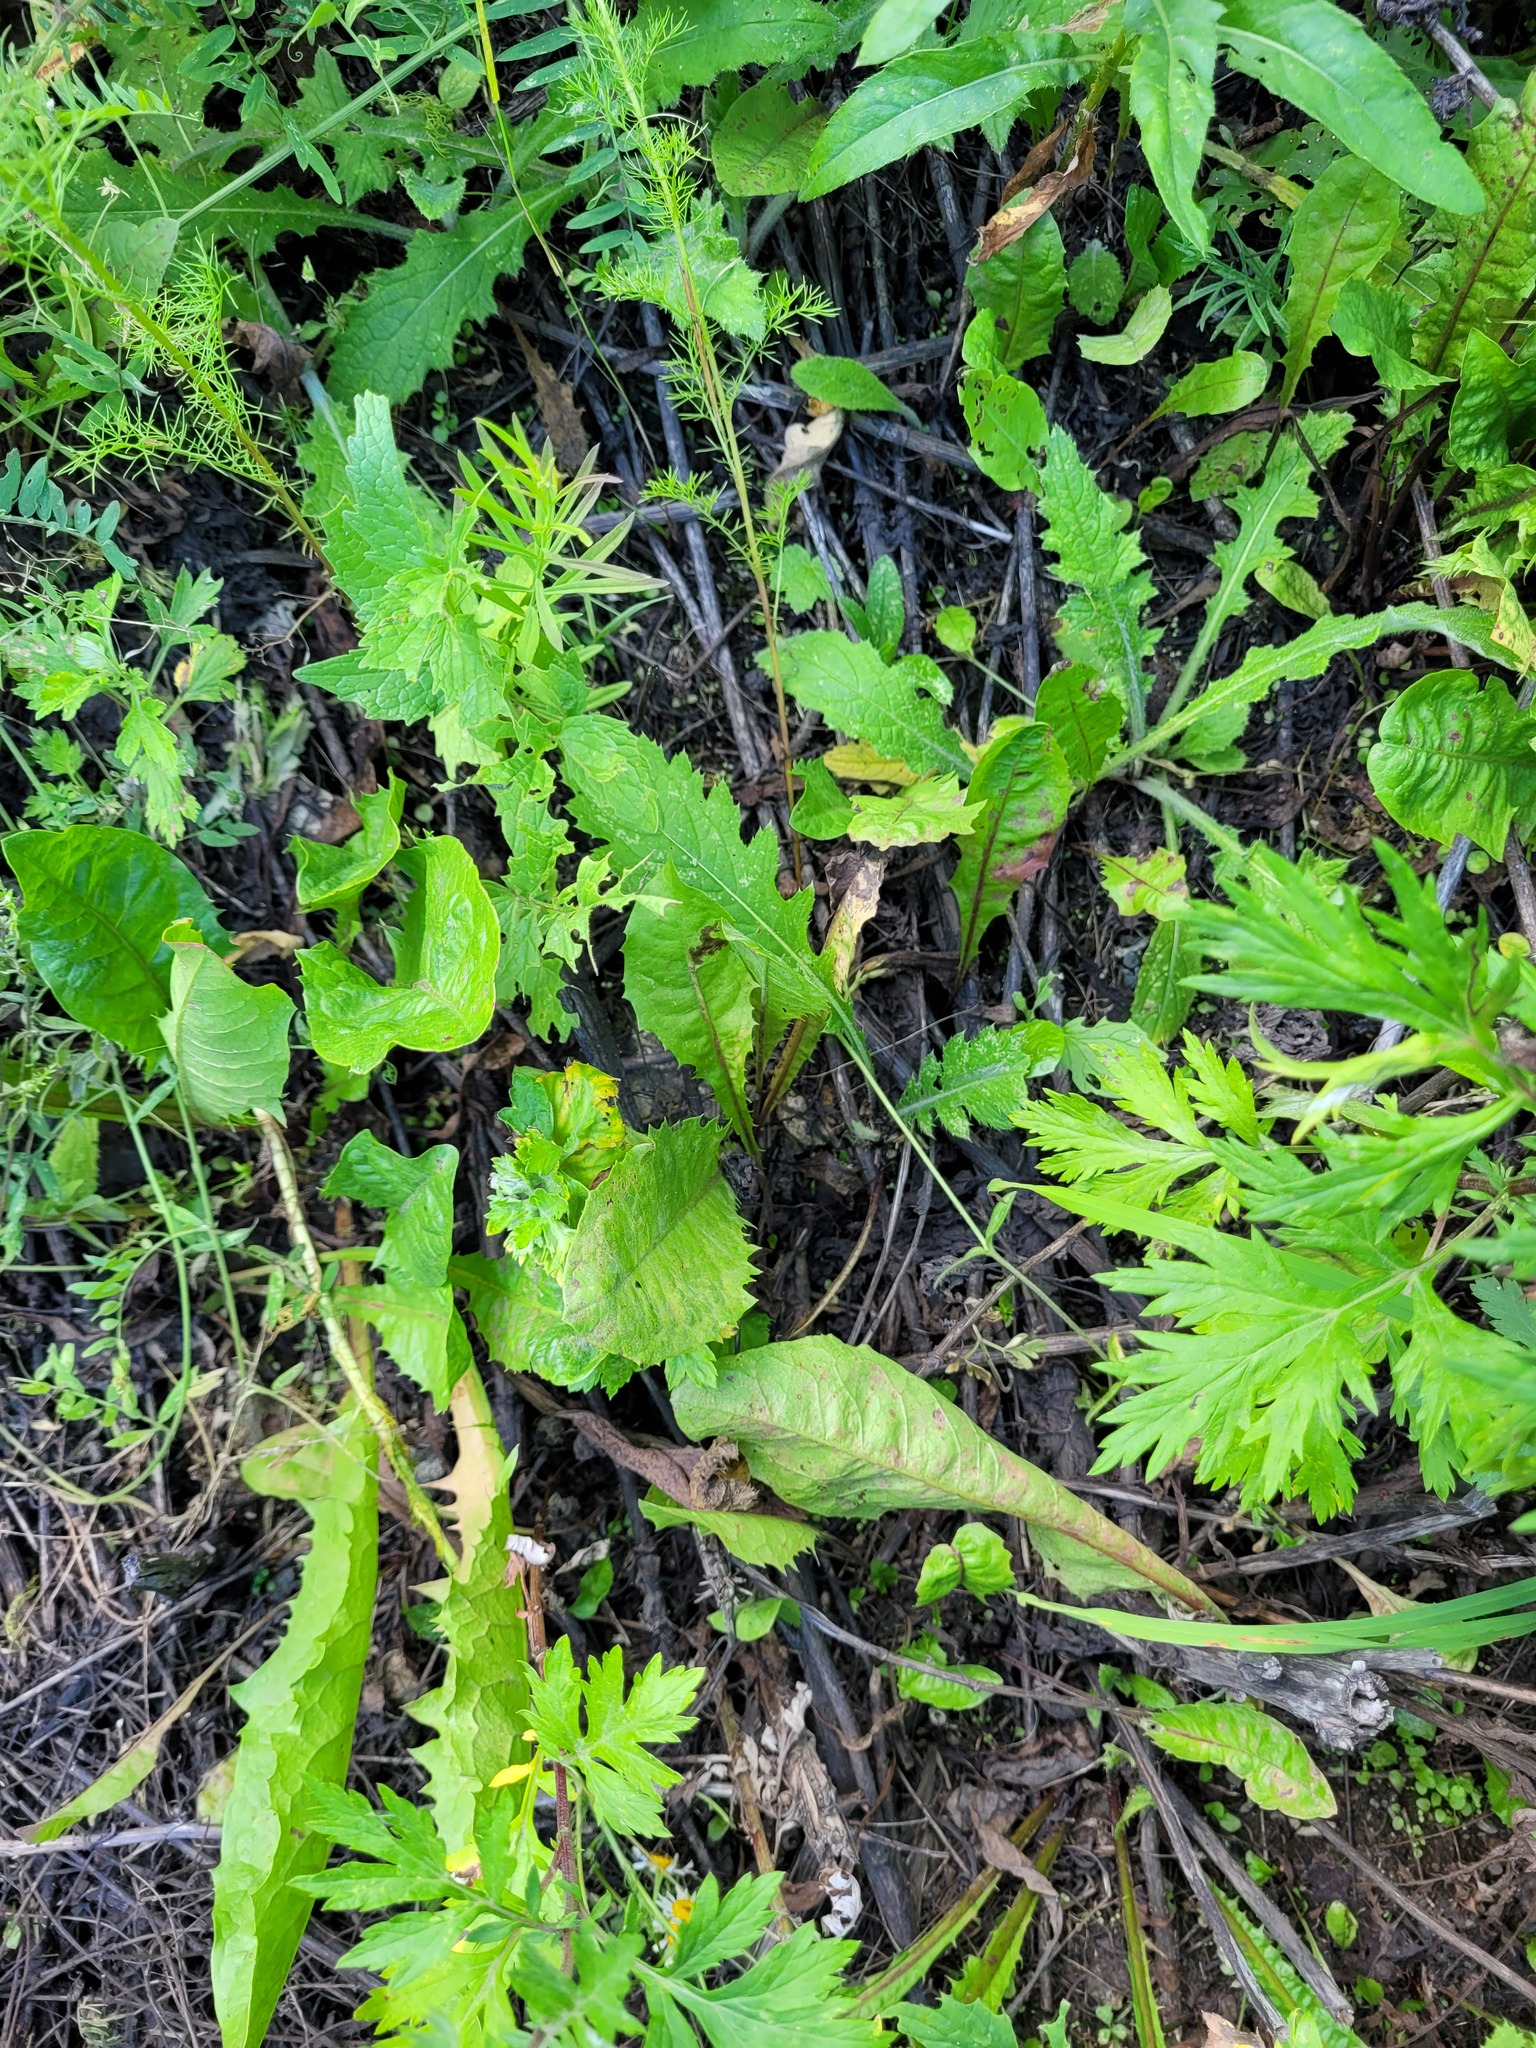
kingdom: Plantae
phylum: Tracheophyta
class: Magnoliopsida
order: Asterales
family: Asteraceae
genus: Taraxacum
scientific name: Taraxacum officinale
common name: Common dandelion
